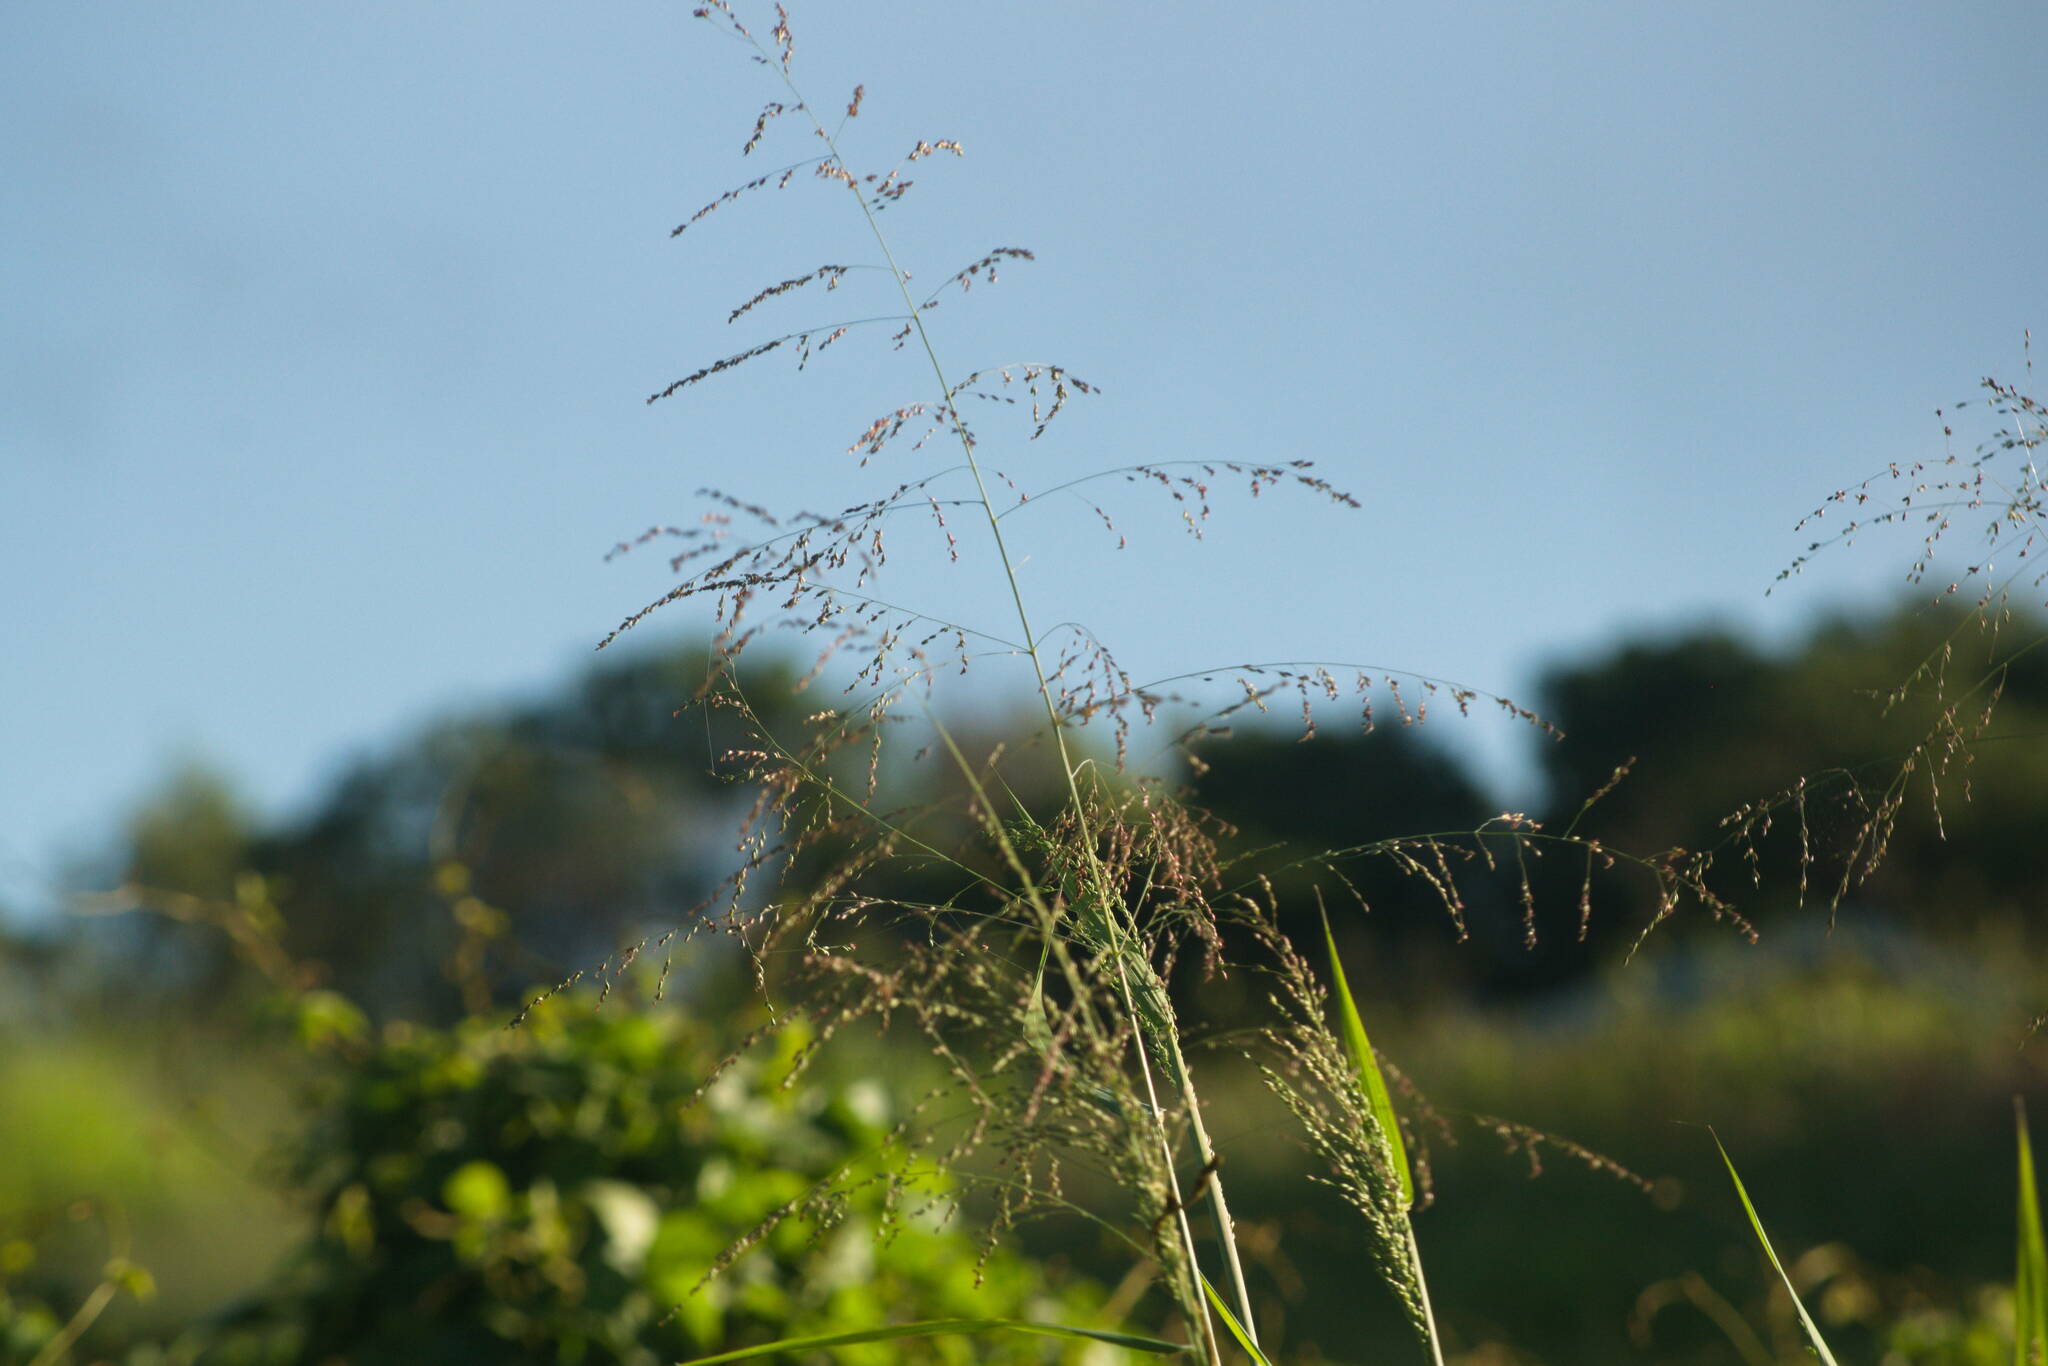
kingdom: Plantae
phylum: Tracheophyta
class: Liliopsida
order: Poales
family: Poaceae
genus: Megathyrsus
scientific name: Megathyrsus maximus
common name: Guineagrass
